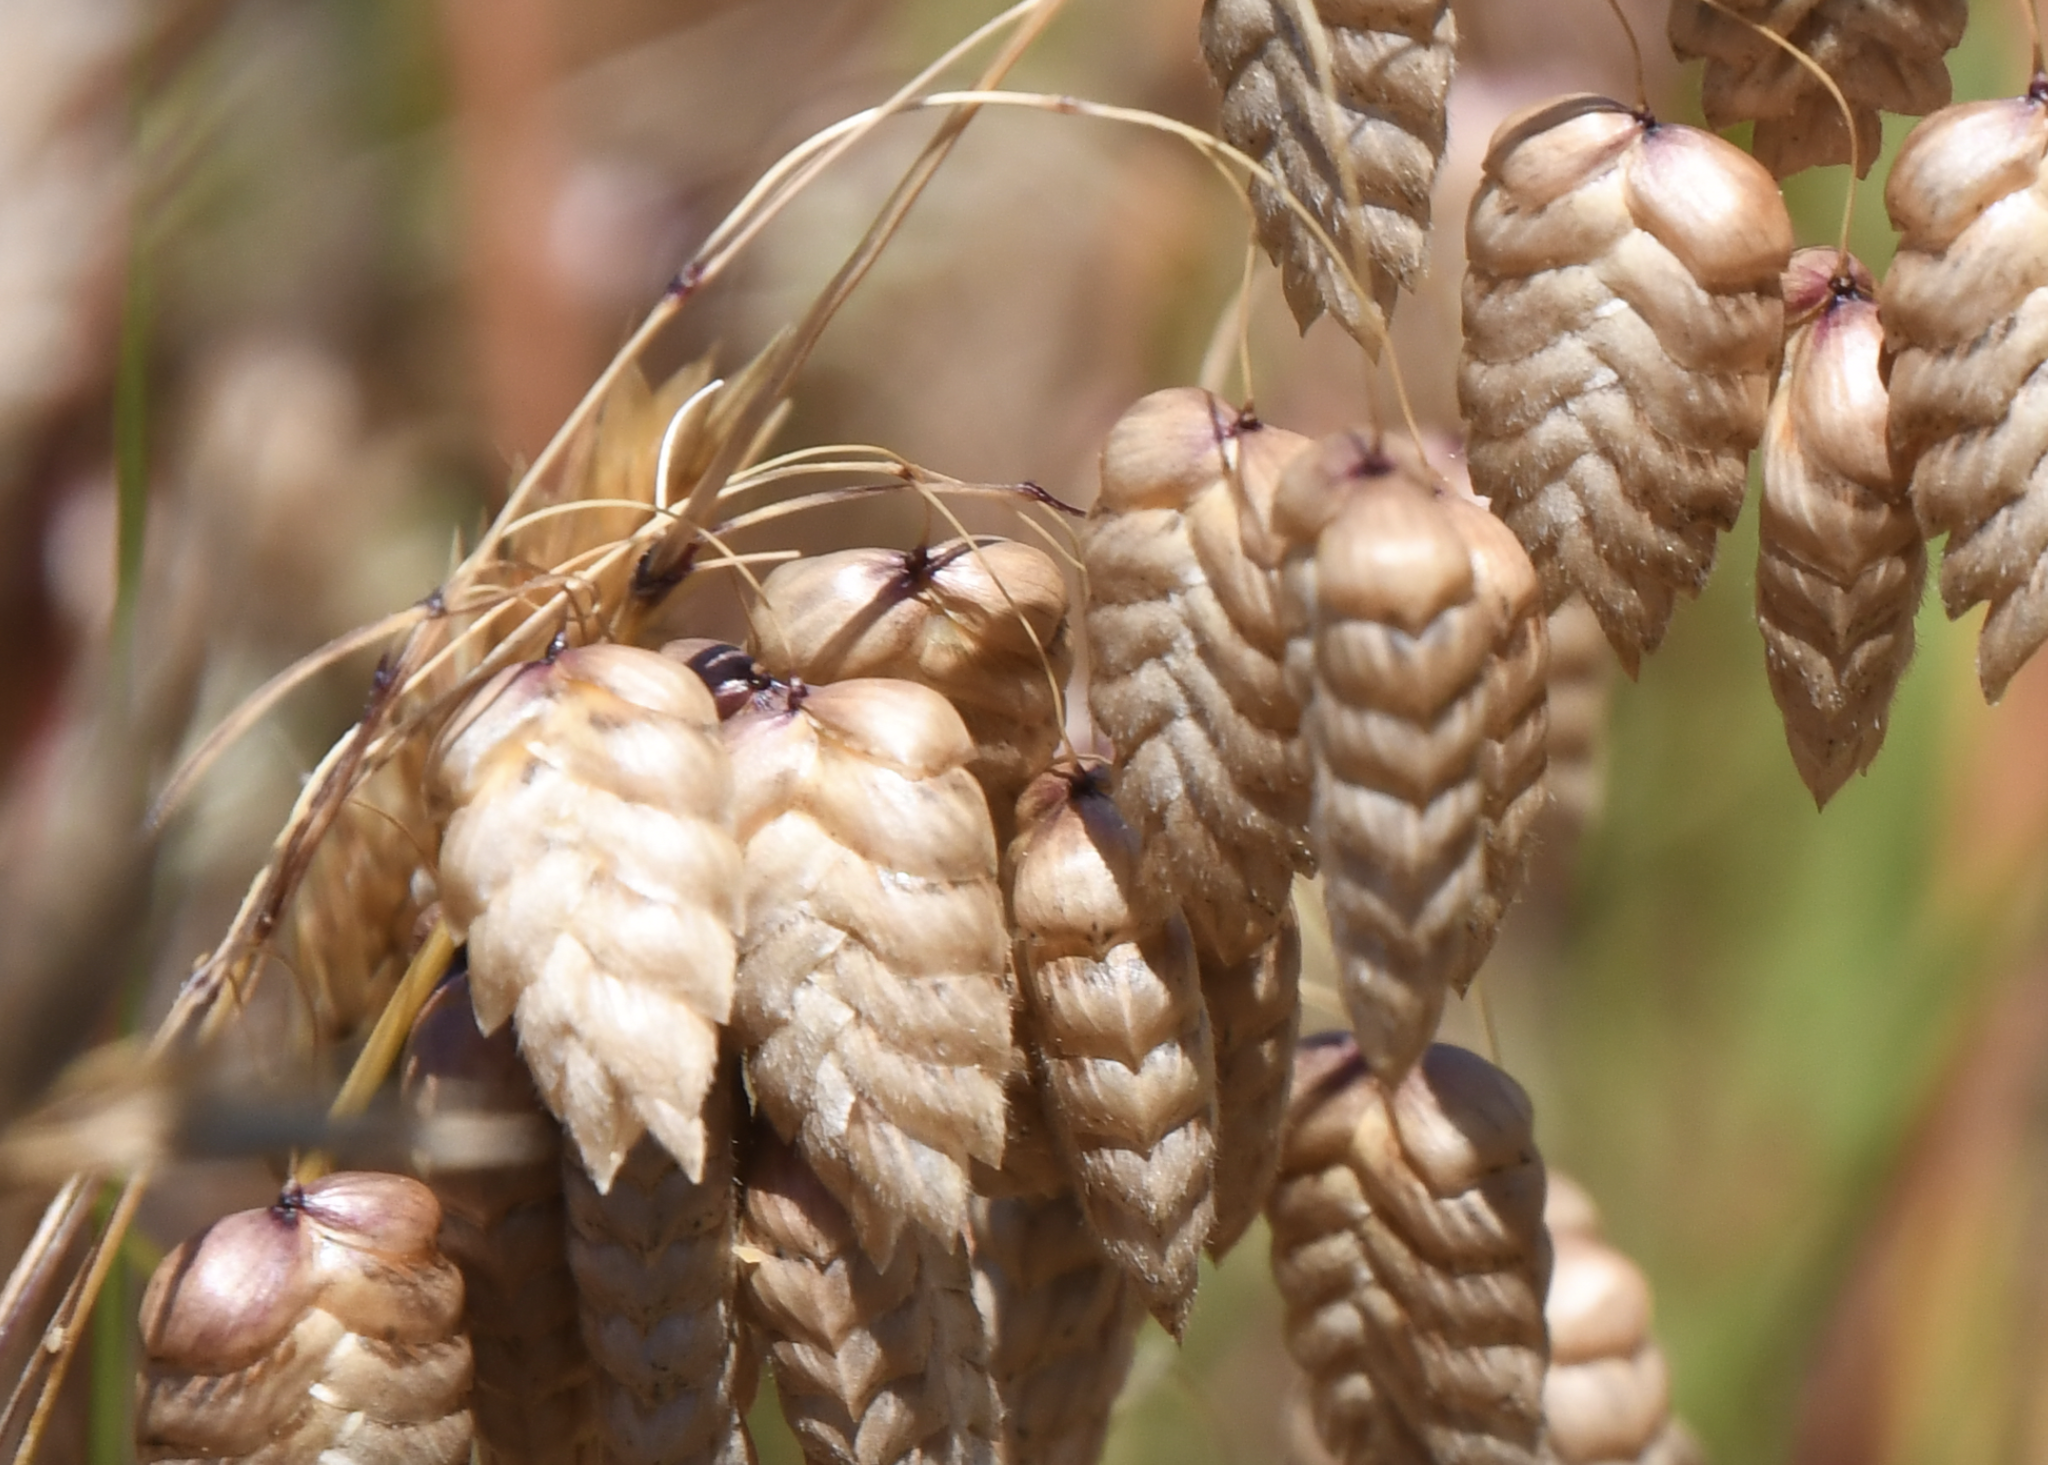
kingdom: Plantae
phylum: Tracheophyta
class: Liliopsida
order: Poales
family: Poaceae
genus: Briza
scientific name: Briza maxima
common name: Big quakinggrass
